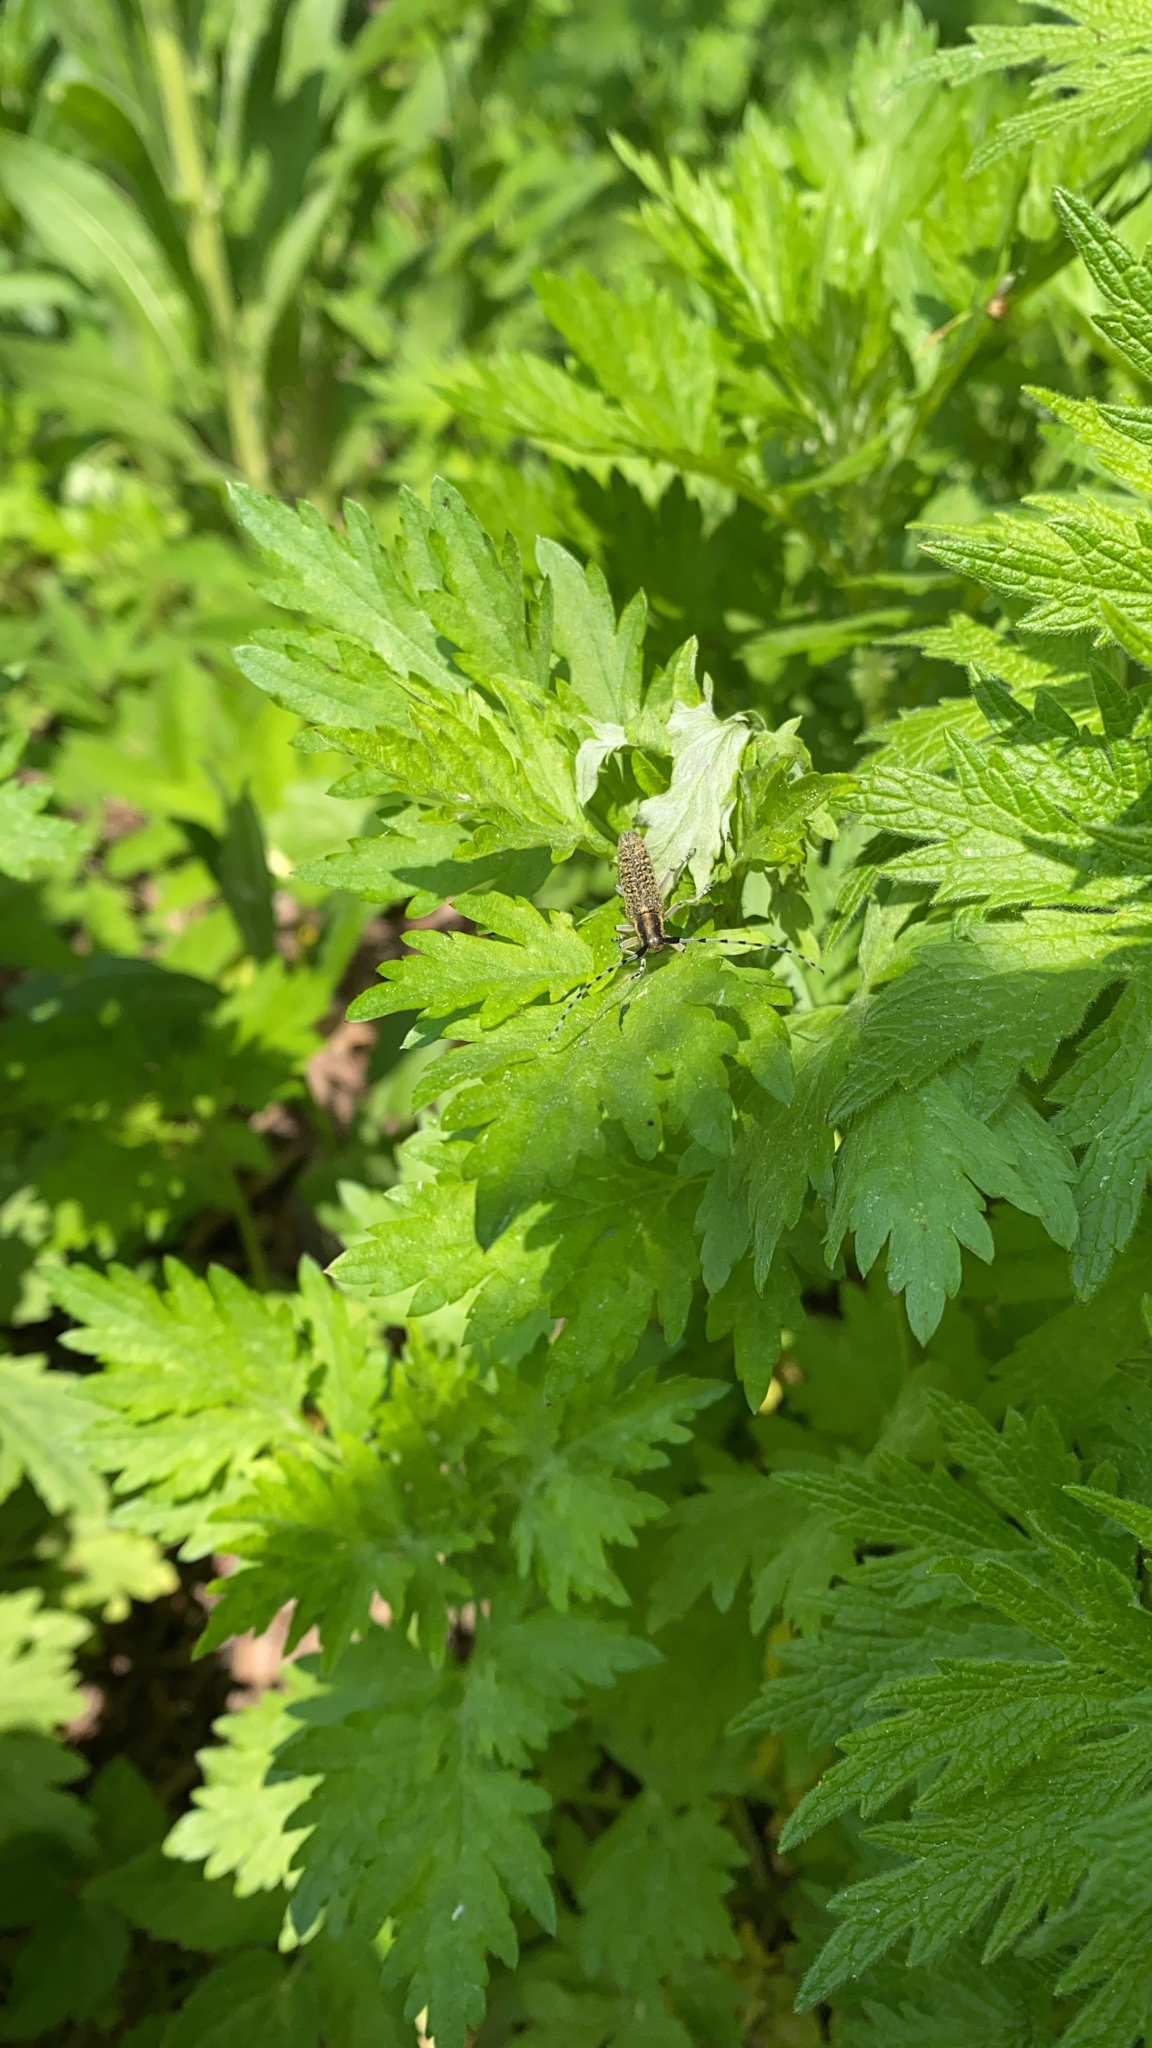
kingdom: Animalia
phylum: Arthropoda
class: Insecta
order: Coleoptera
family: Cerambycidae
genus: Agapanthia
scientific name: Agapanthia villosoviridescens
